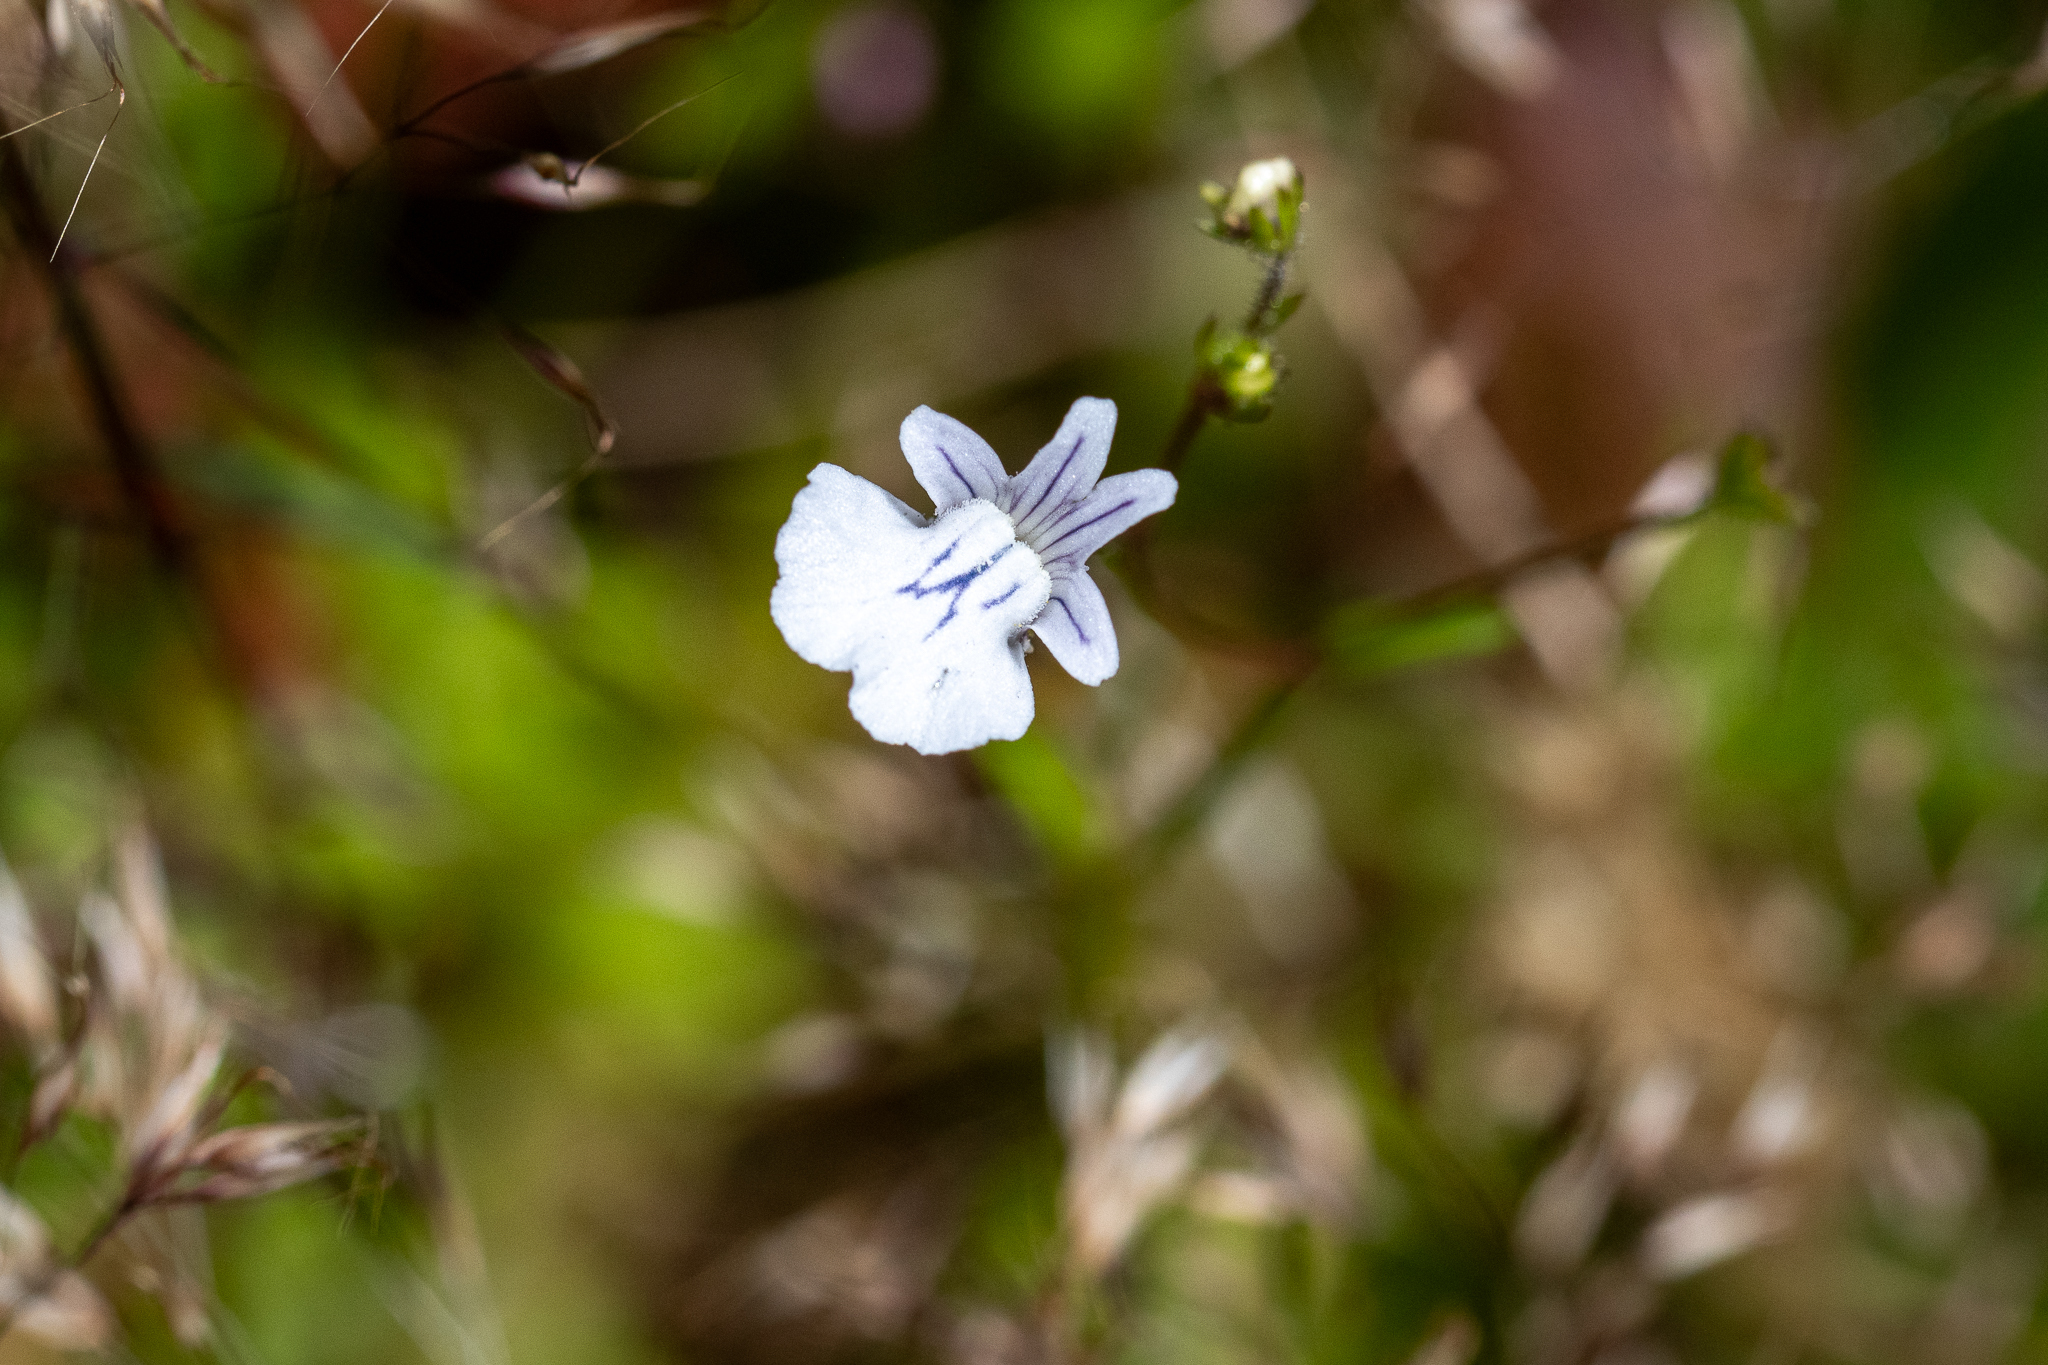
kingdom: Plantae
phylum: Tracheophyta
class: Magnoliopsida
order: Lamiales
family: Scrophulariaceae
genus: Nemesia
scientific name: Nemesia diffusa
